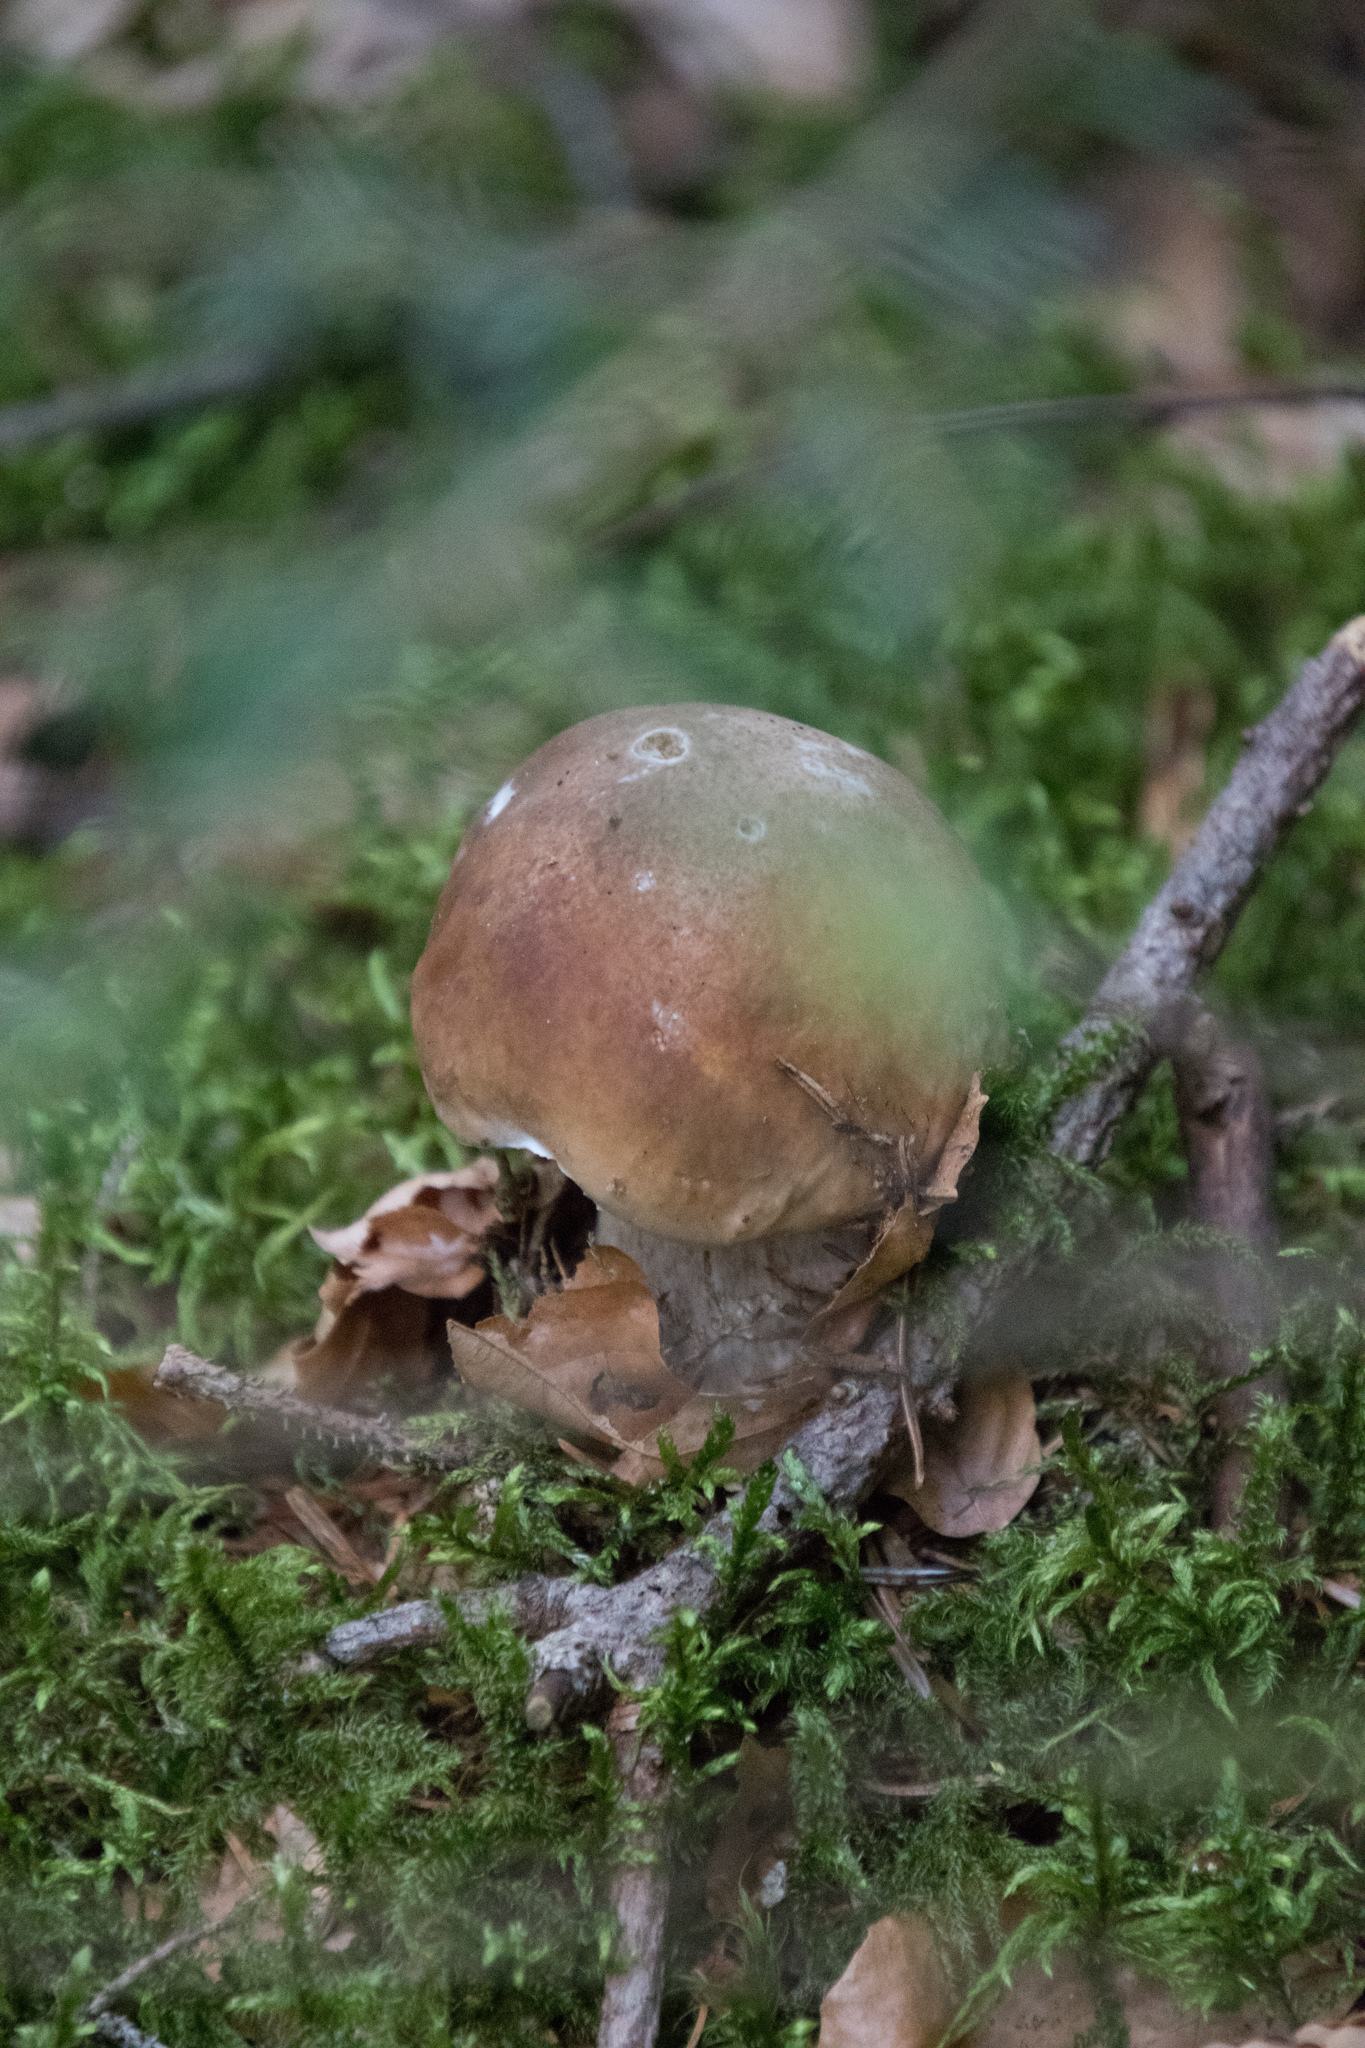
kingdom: Fungi
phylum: Basidiomycota
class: Agaricomycetes
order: Boletales
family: Boletaceae
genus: Boletus
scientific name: Boletus edulis
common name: Cep
